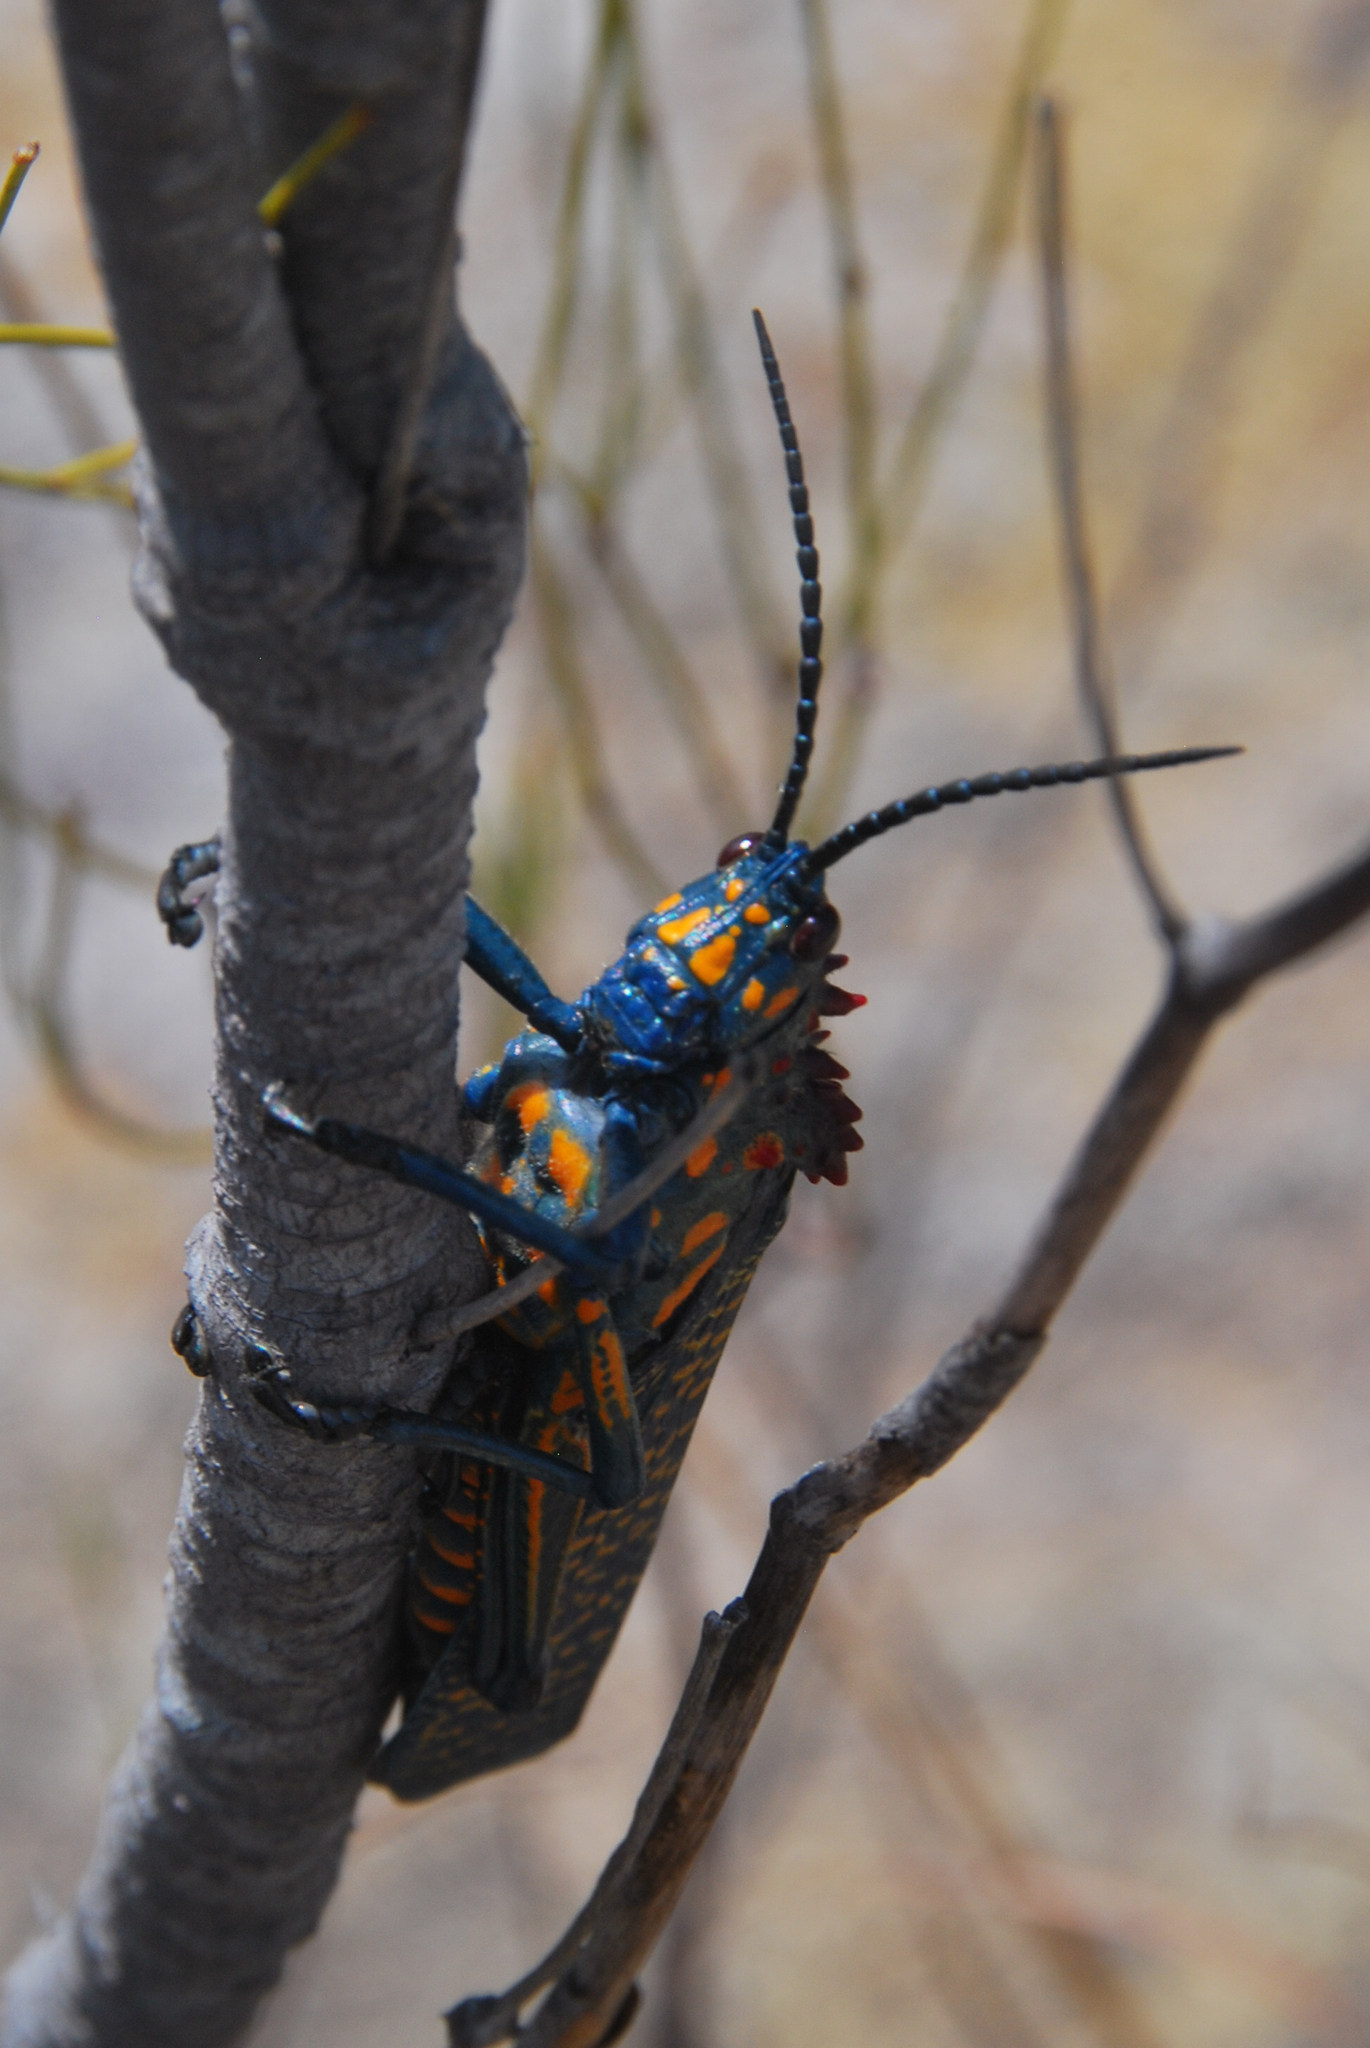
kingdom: Animalia
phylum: Arthropoda
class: Insecta
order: Orthoptera
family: Pyrgomorphidae
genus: Phymateus
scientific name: Phymateus saxosus
